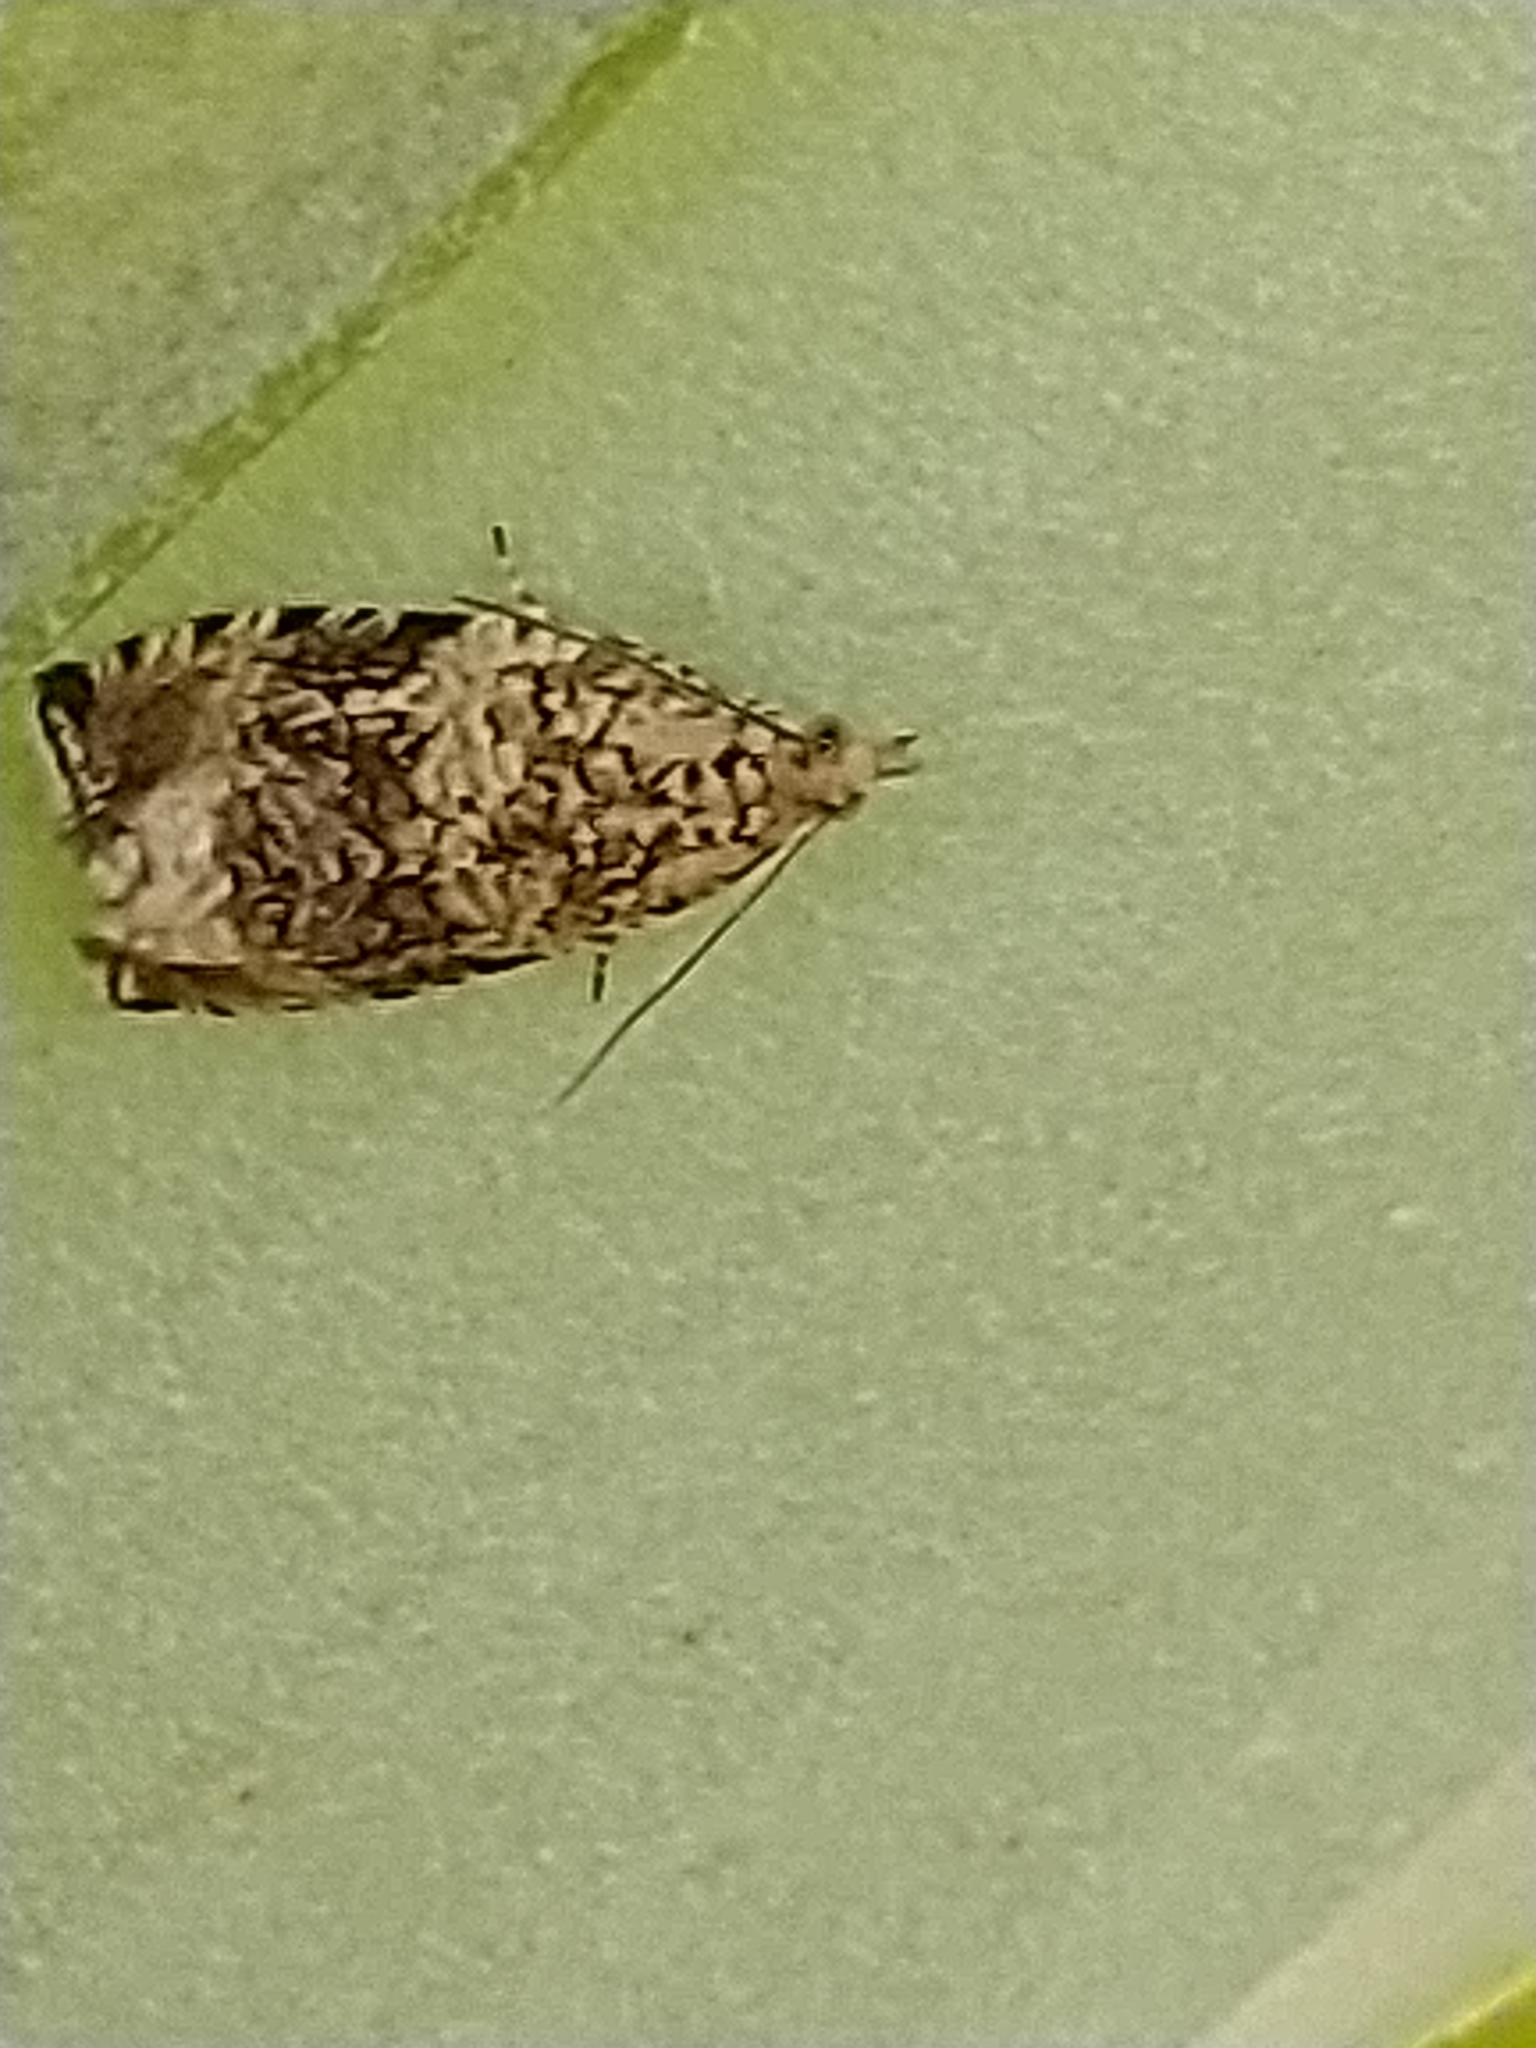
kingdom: Animalia
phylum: Arthropoda
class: Insecta
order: Lepidoptera
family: Tortricidae
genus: Syricoris
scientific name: Syricoris lacunana
